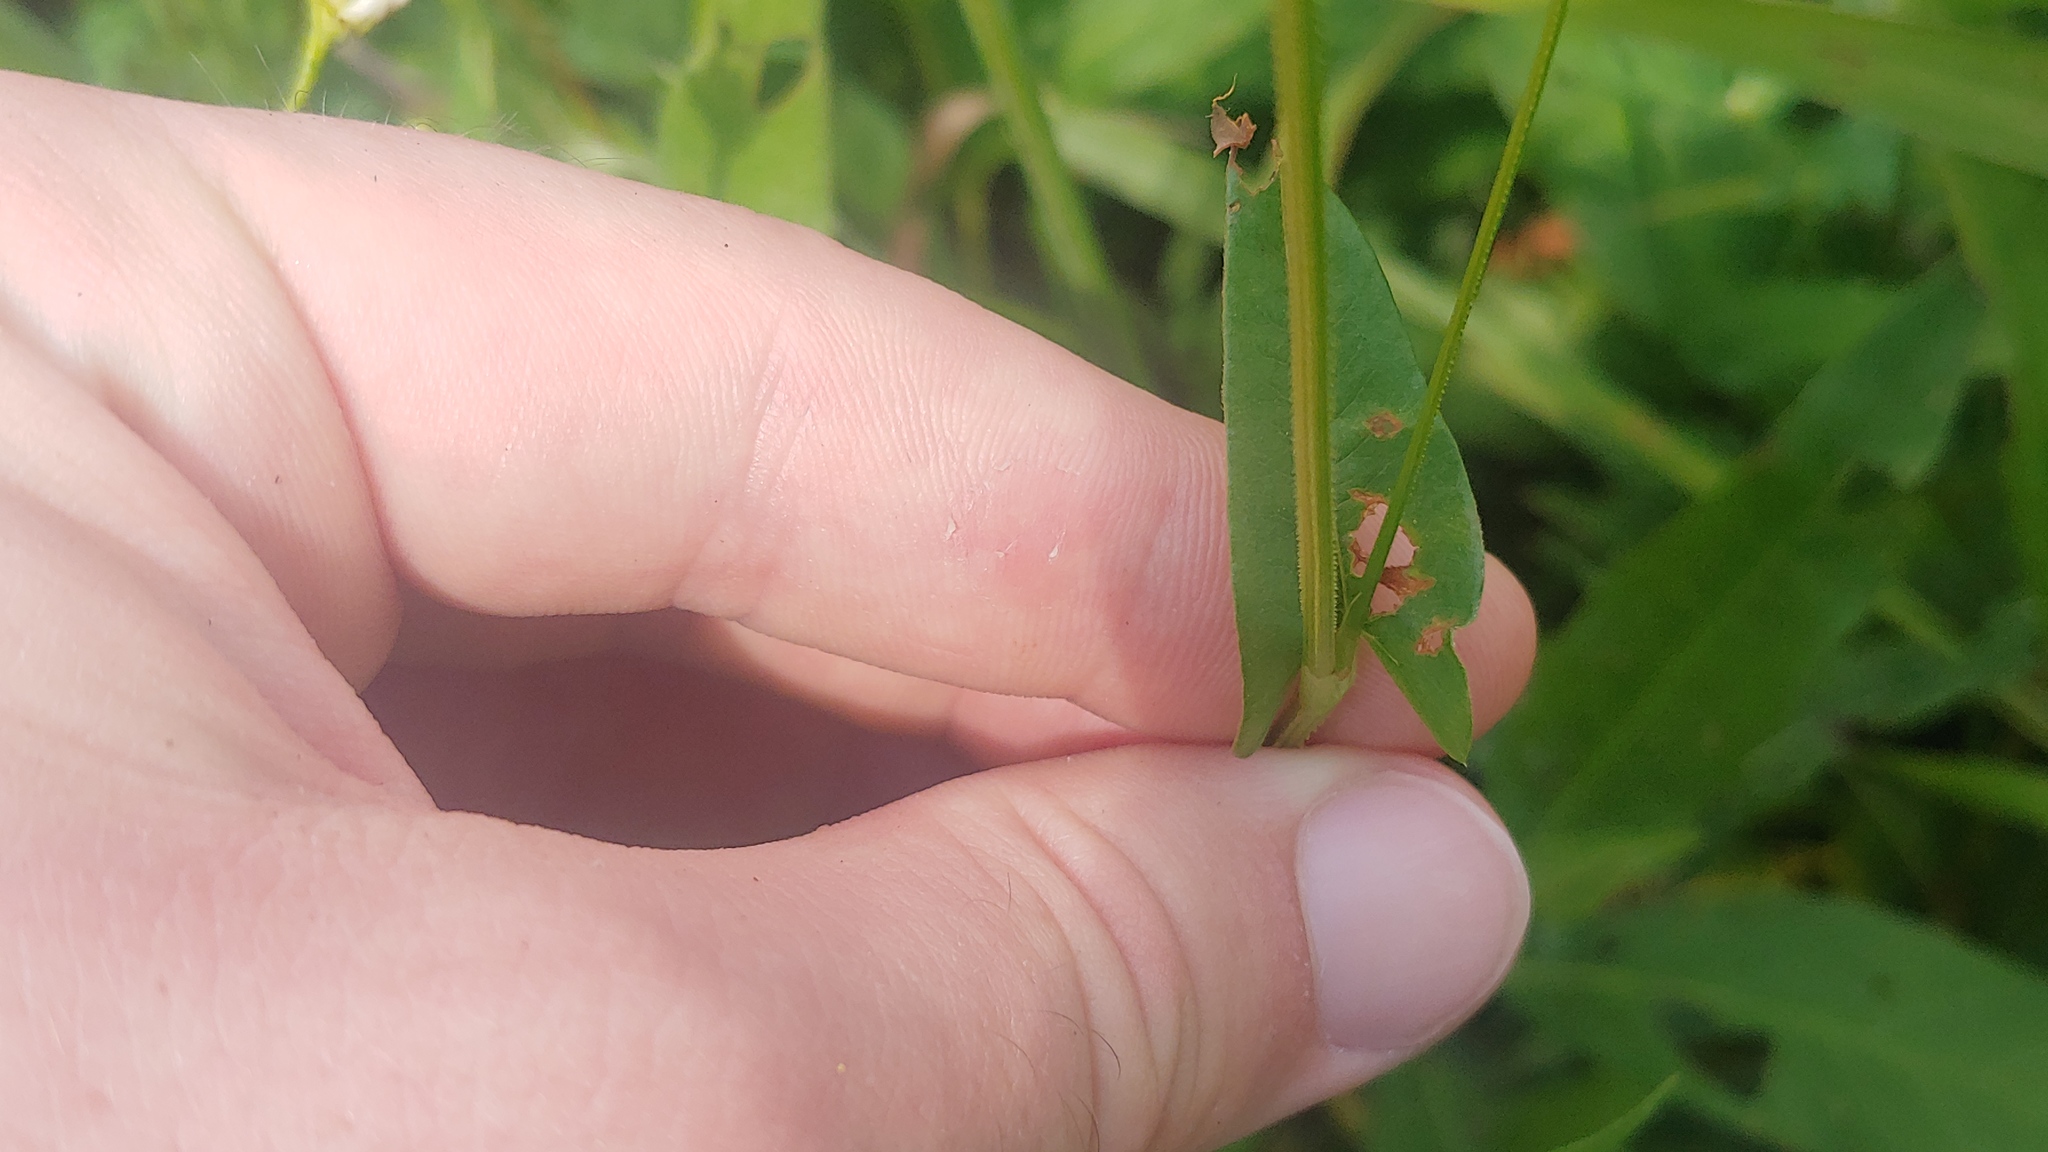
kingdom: Plantae
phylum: Tracheophyta
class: Magnoliopsida
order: Caryophyllales
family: Polygonaceae
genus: Persicaria
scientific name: Persicaria sagittata
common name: American tearthumb
